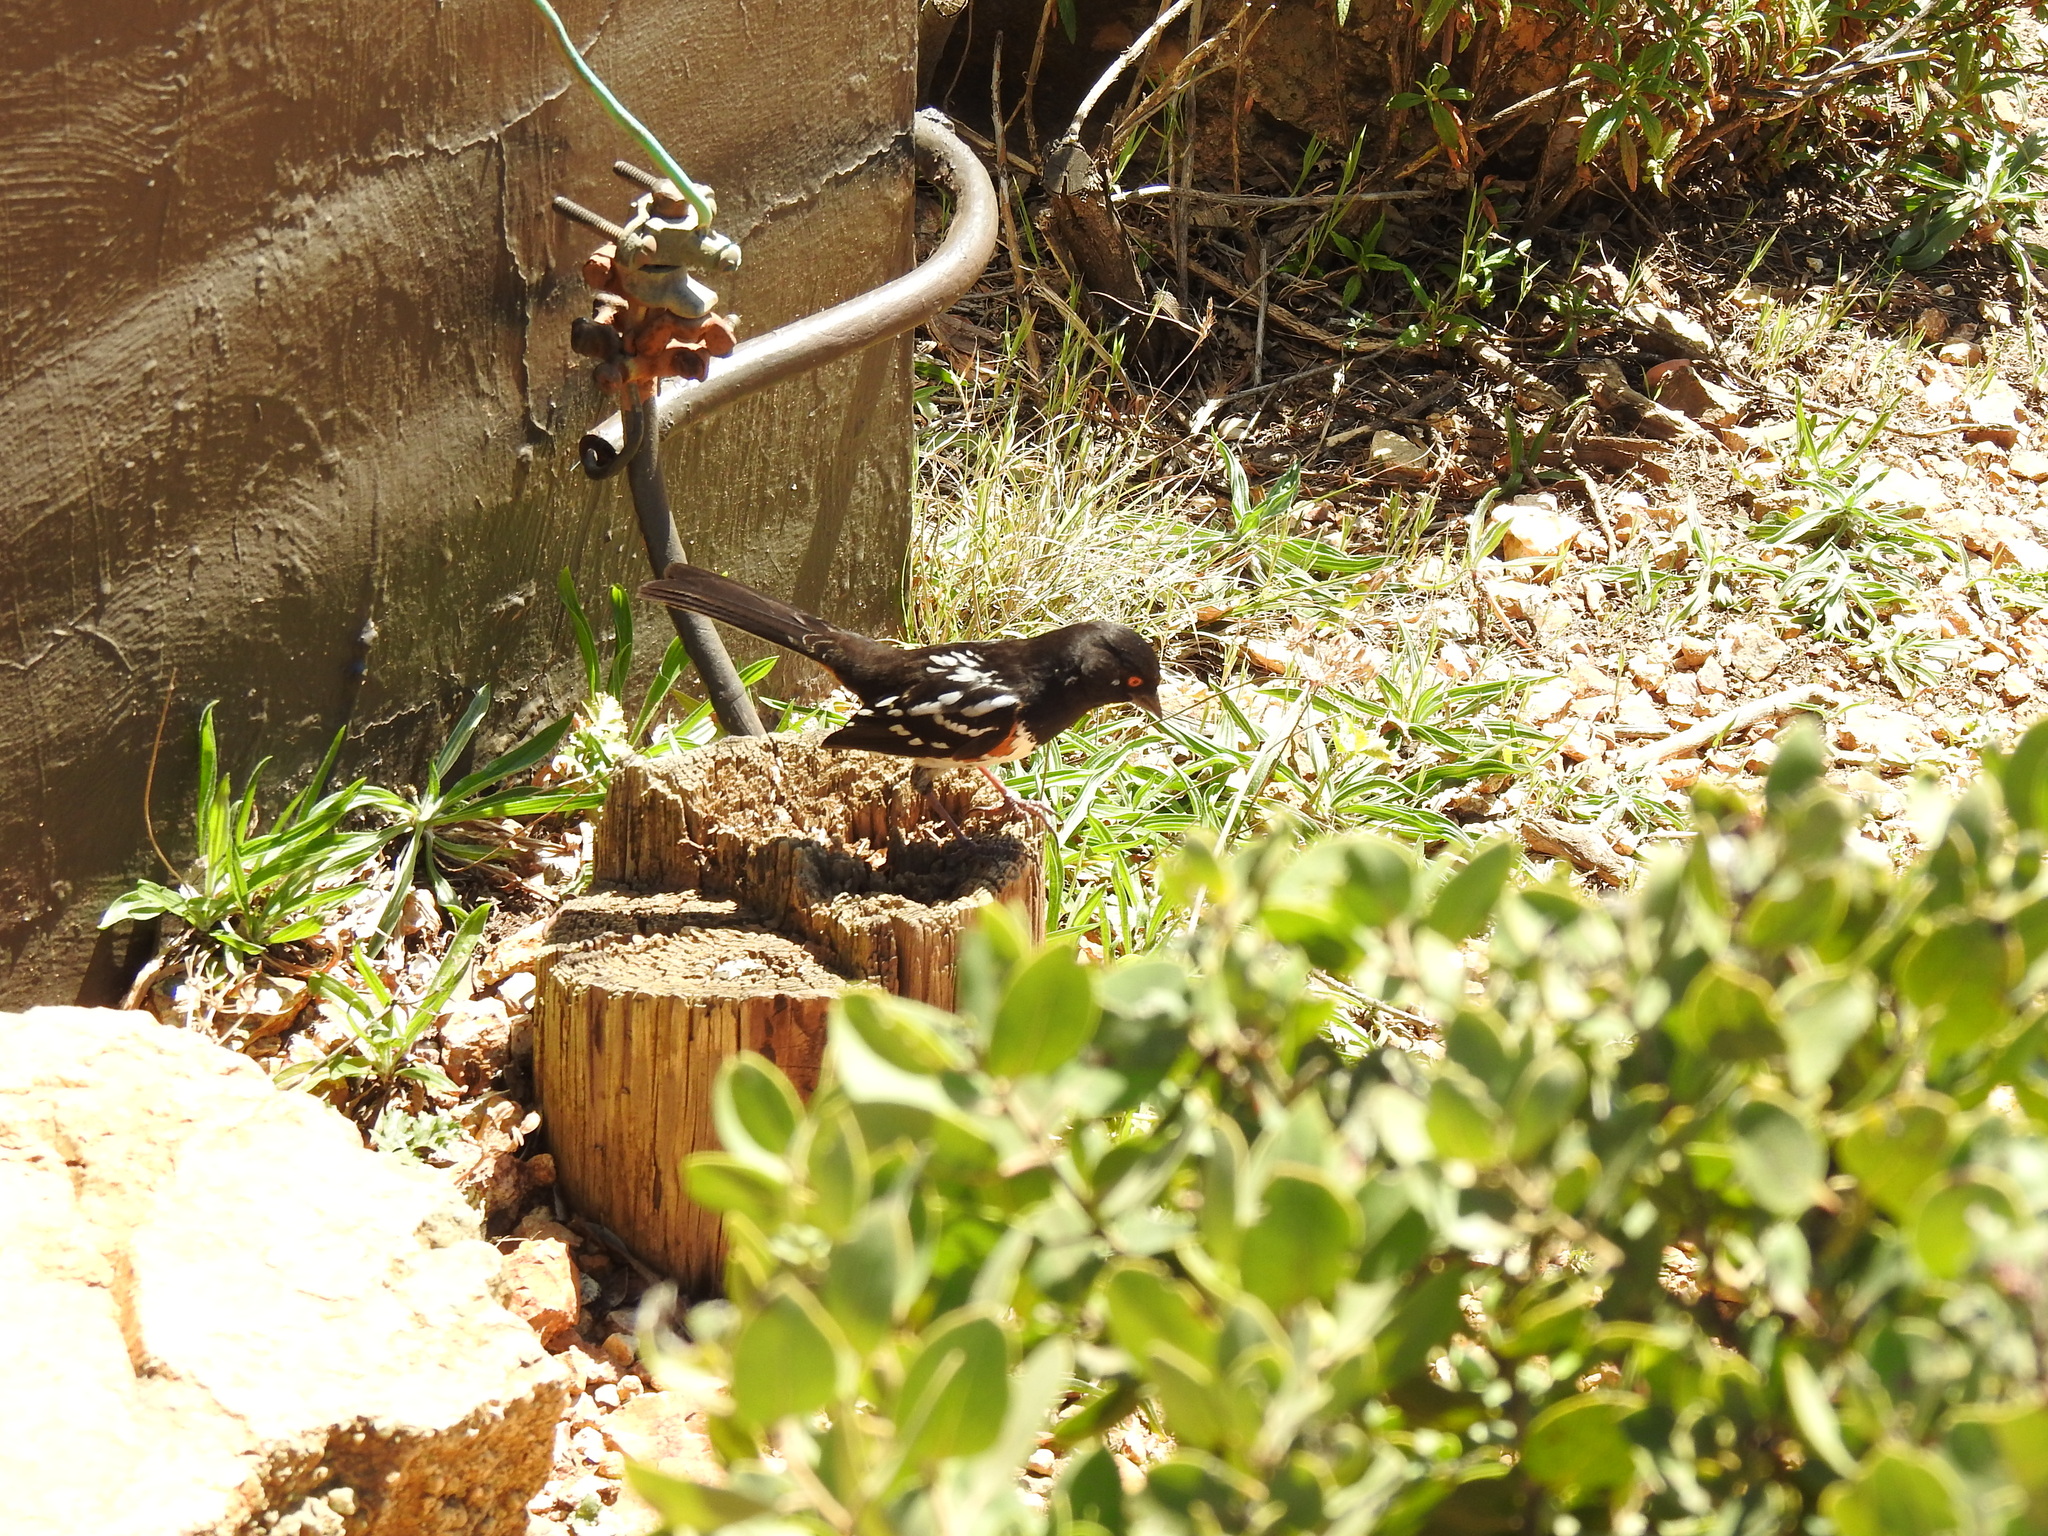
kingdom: Animalia
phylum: Chordata
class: Aves
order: Passeriformes
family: Passerellidae
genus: Pipilo
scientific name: Pipilo maculatus
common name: Spotted towhee
